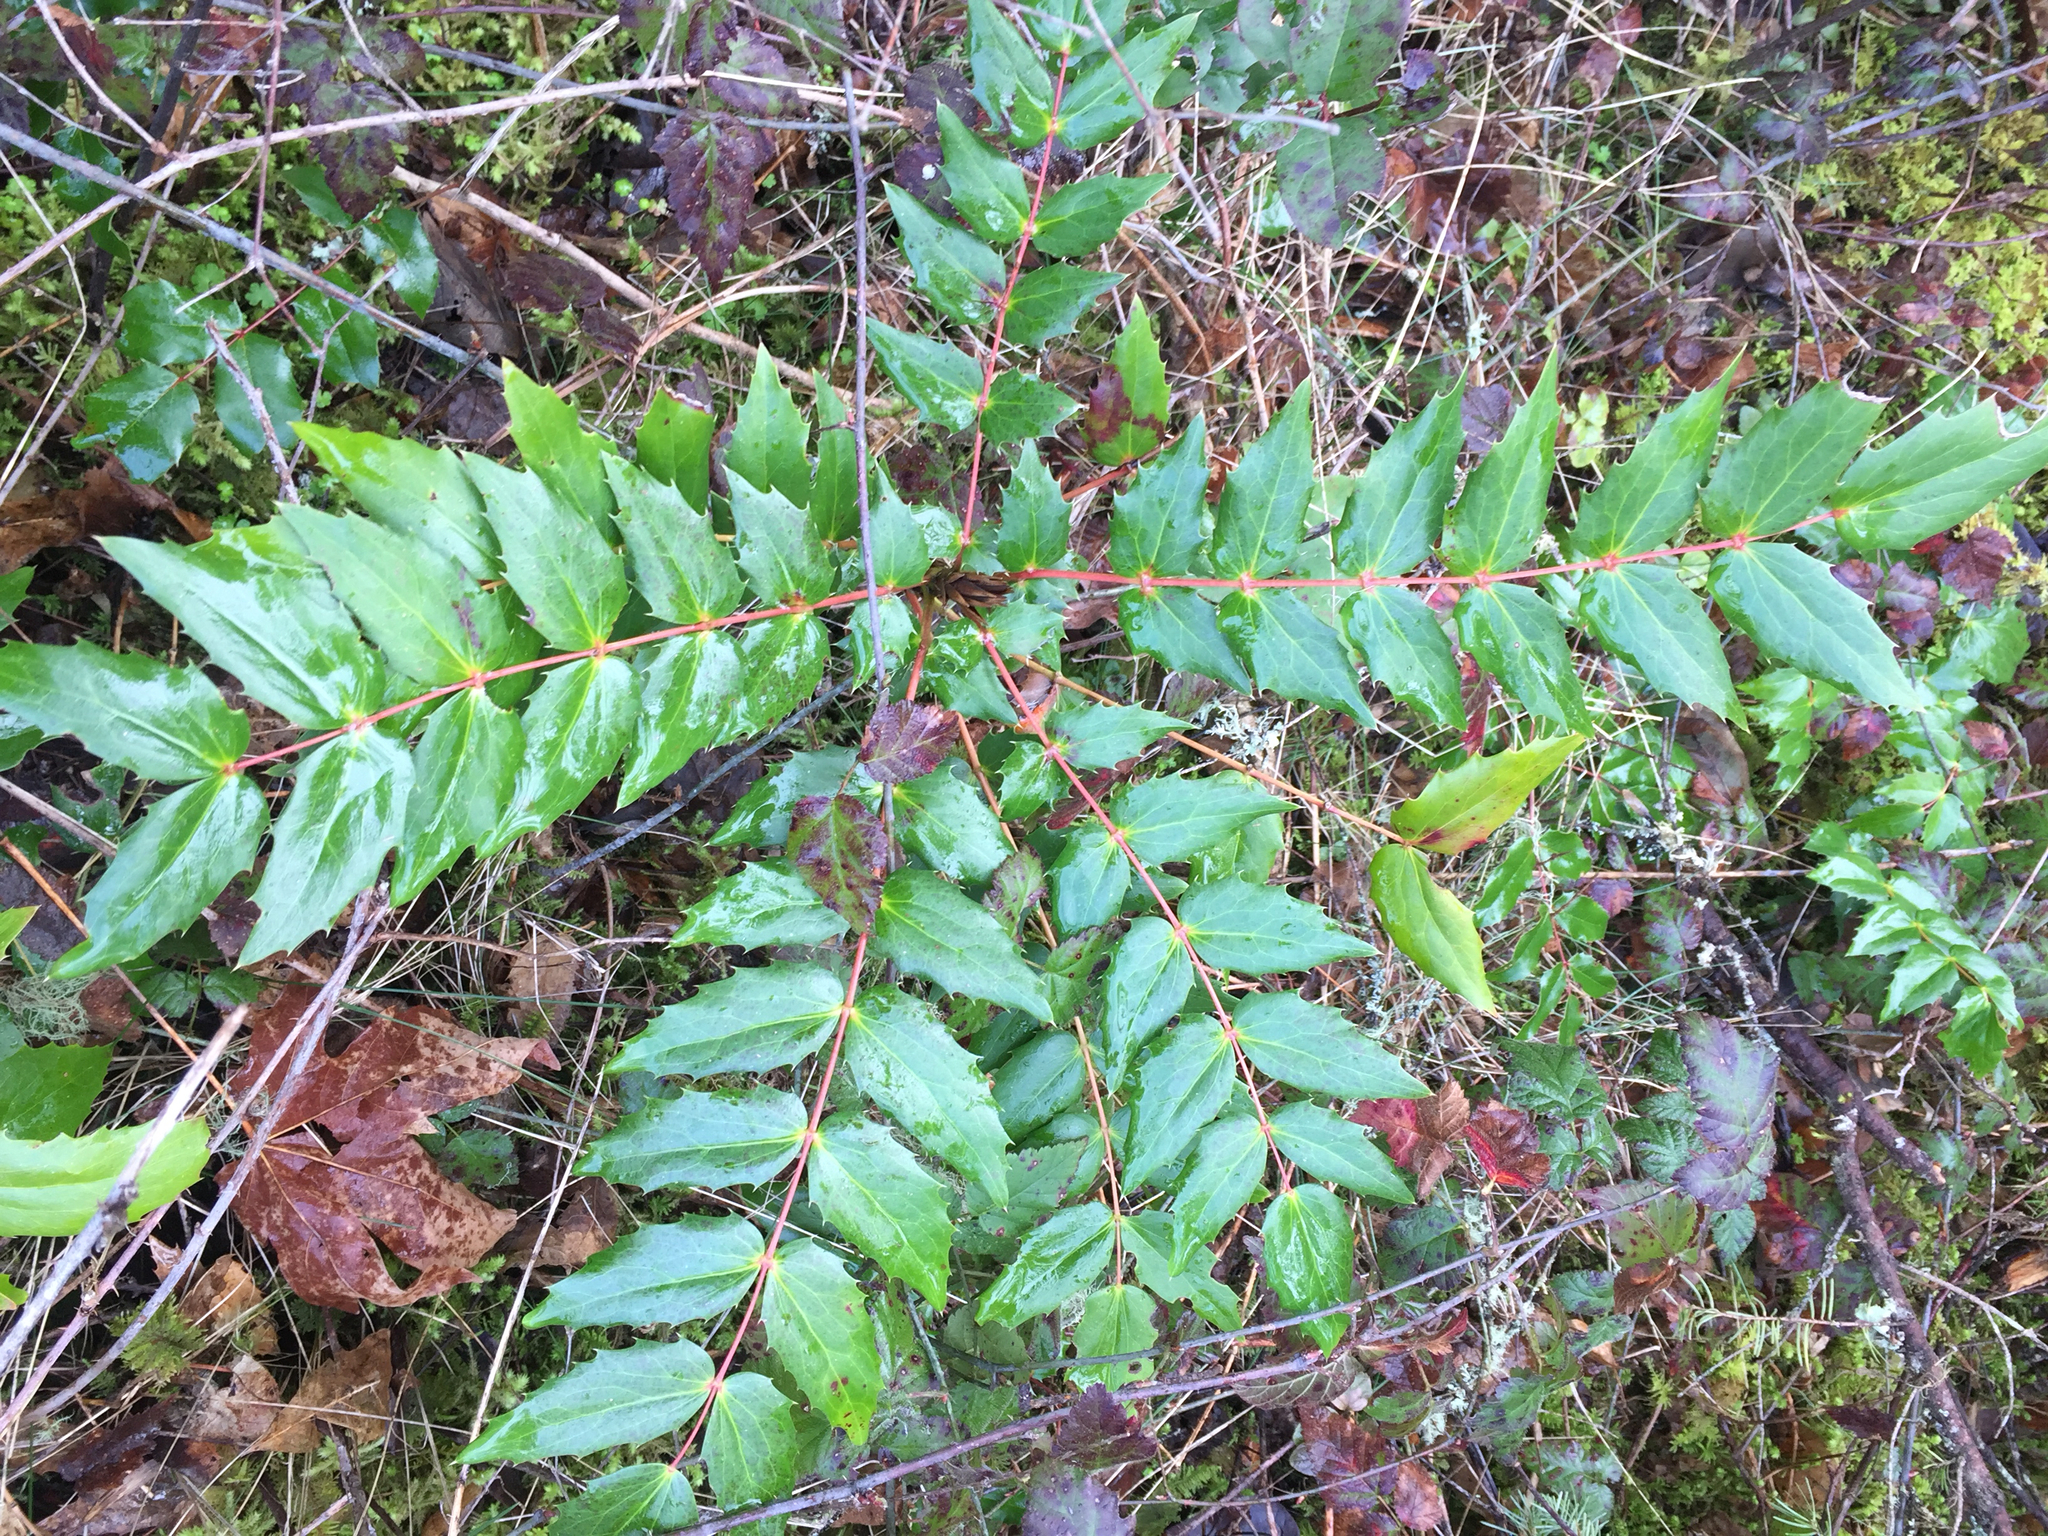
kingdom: Plantae
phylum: Tracheophyta
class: Magnoliopsida
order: Ranunculales
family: Berberidaceae
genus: Mahonia
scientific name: Mahonia nervosa
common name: Cascade oregon-grape
